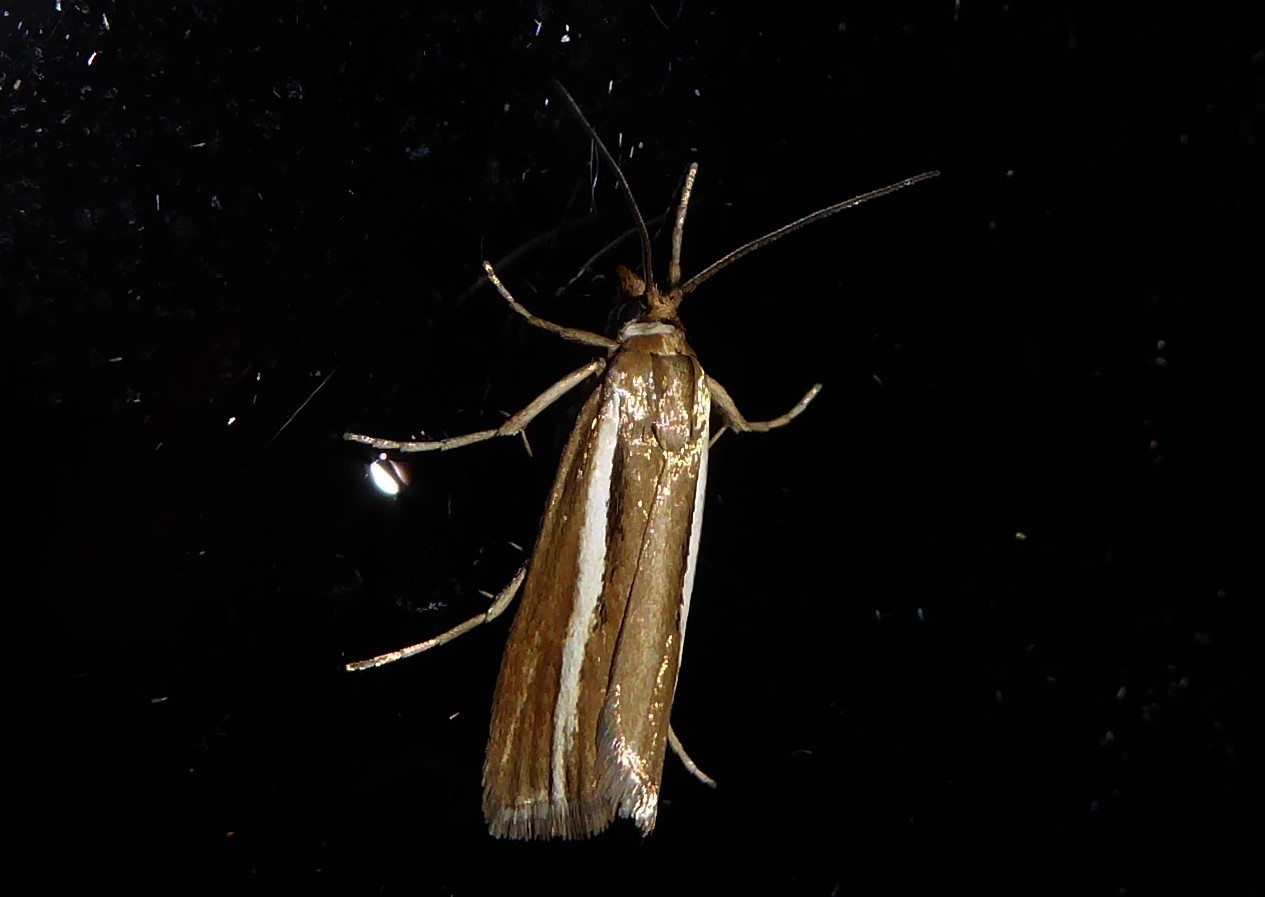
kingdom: Animalia
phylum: Arthropoda
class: Insecta
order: Lepidoptera
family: Crambidae
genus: Orocrambus
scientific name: Orocrambus aethonellus
